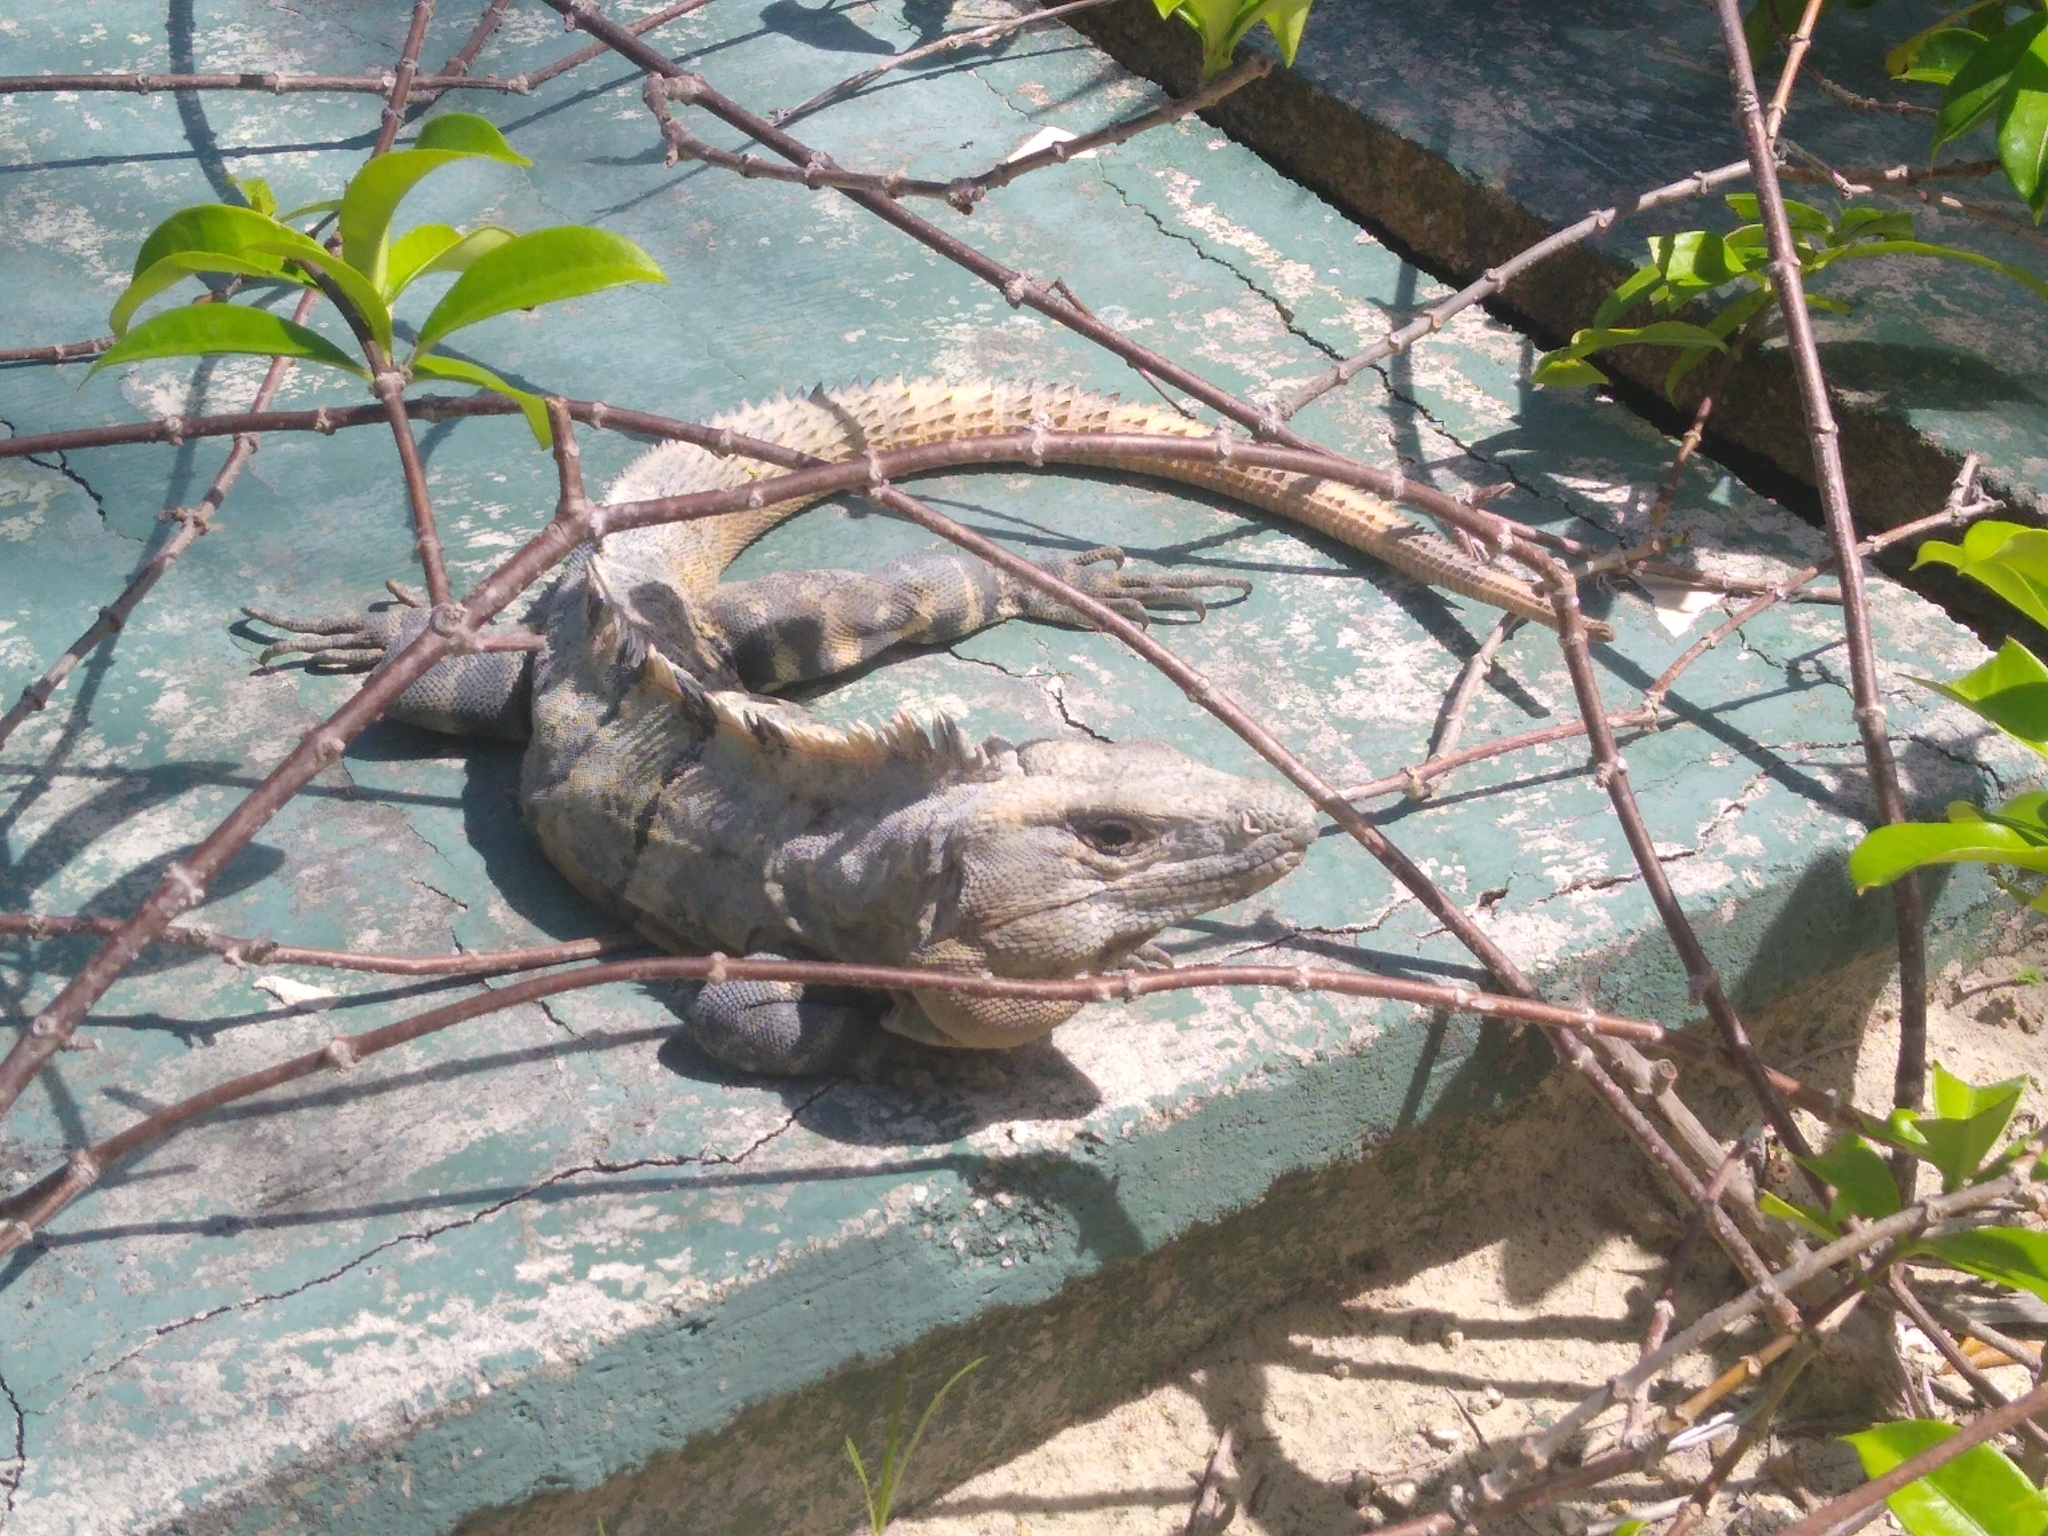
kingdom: Animalia
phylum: Chordata
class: Squamata
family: Iguanidae
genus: Ctenosaura
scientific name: Ctenosaura similis
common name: Black spiny-tailed iguana
